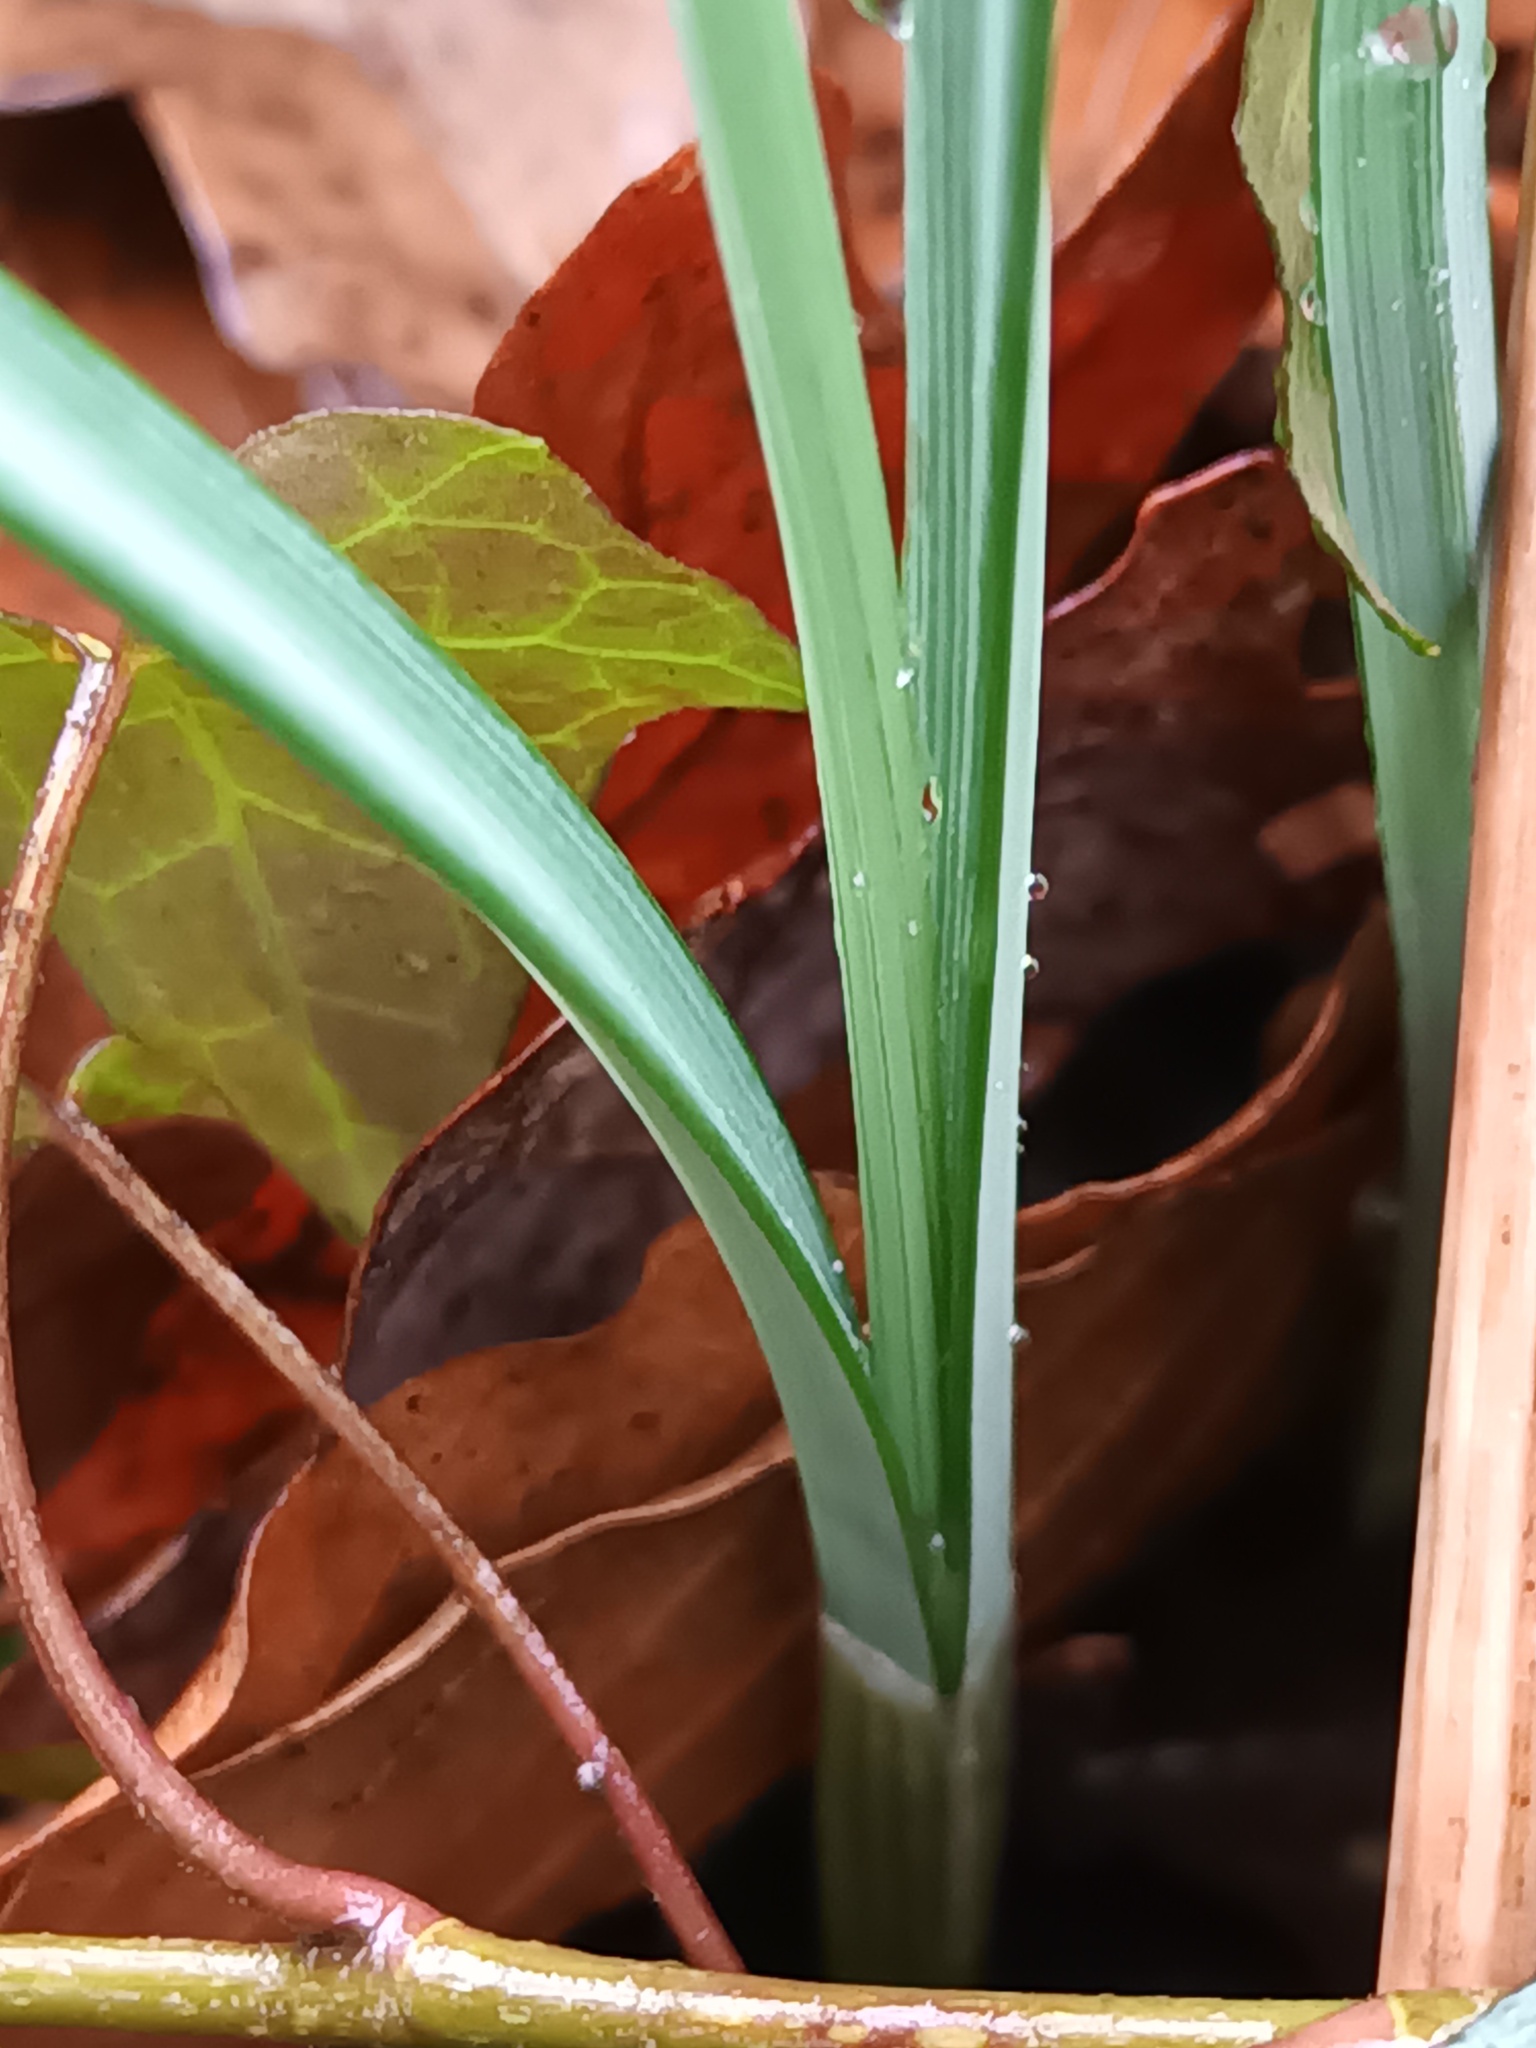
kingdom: Plantae
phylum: Tracheophyta
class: Liliopsida
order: Asparagales
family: Amaryllidaceae
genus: Galanthus
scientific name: Galanthus nivalis
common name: Snowdrop
